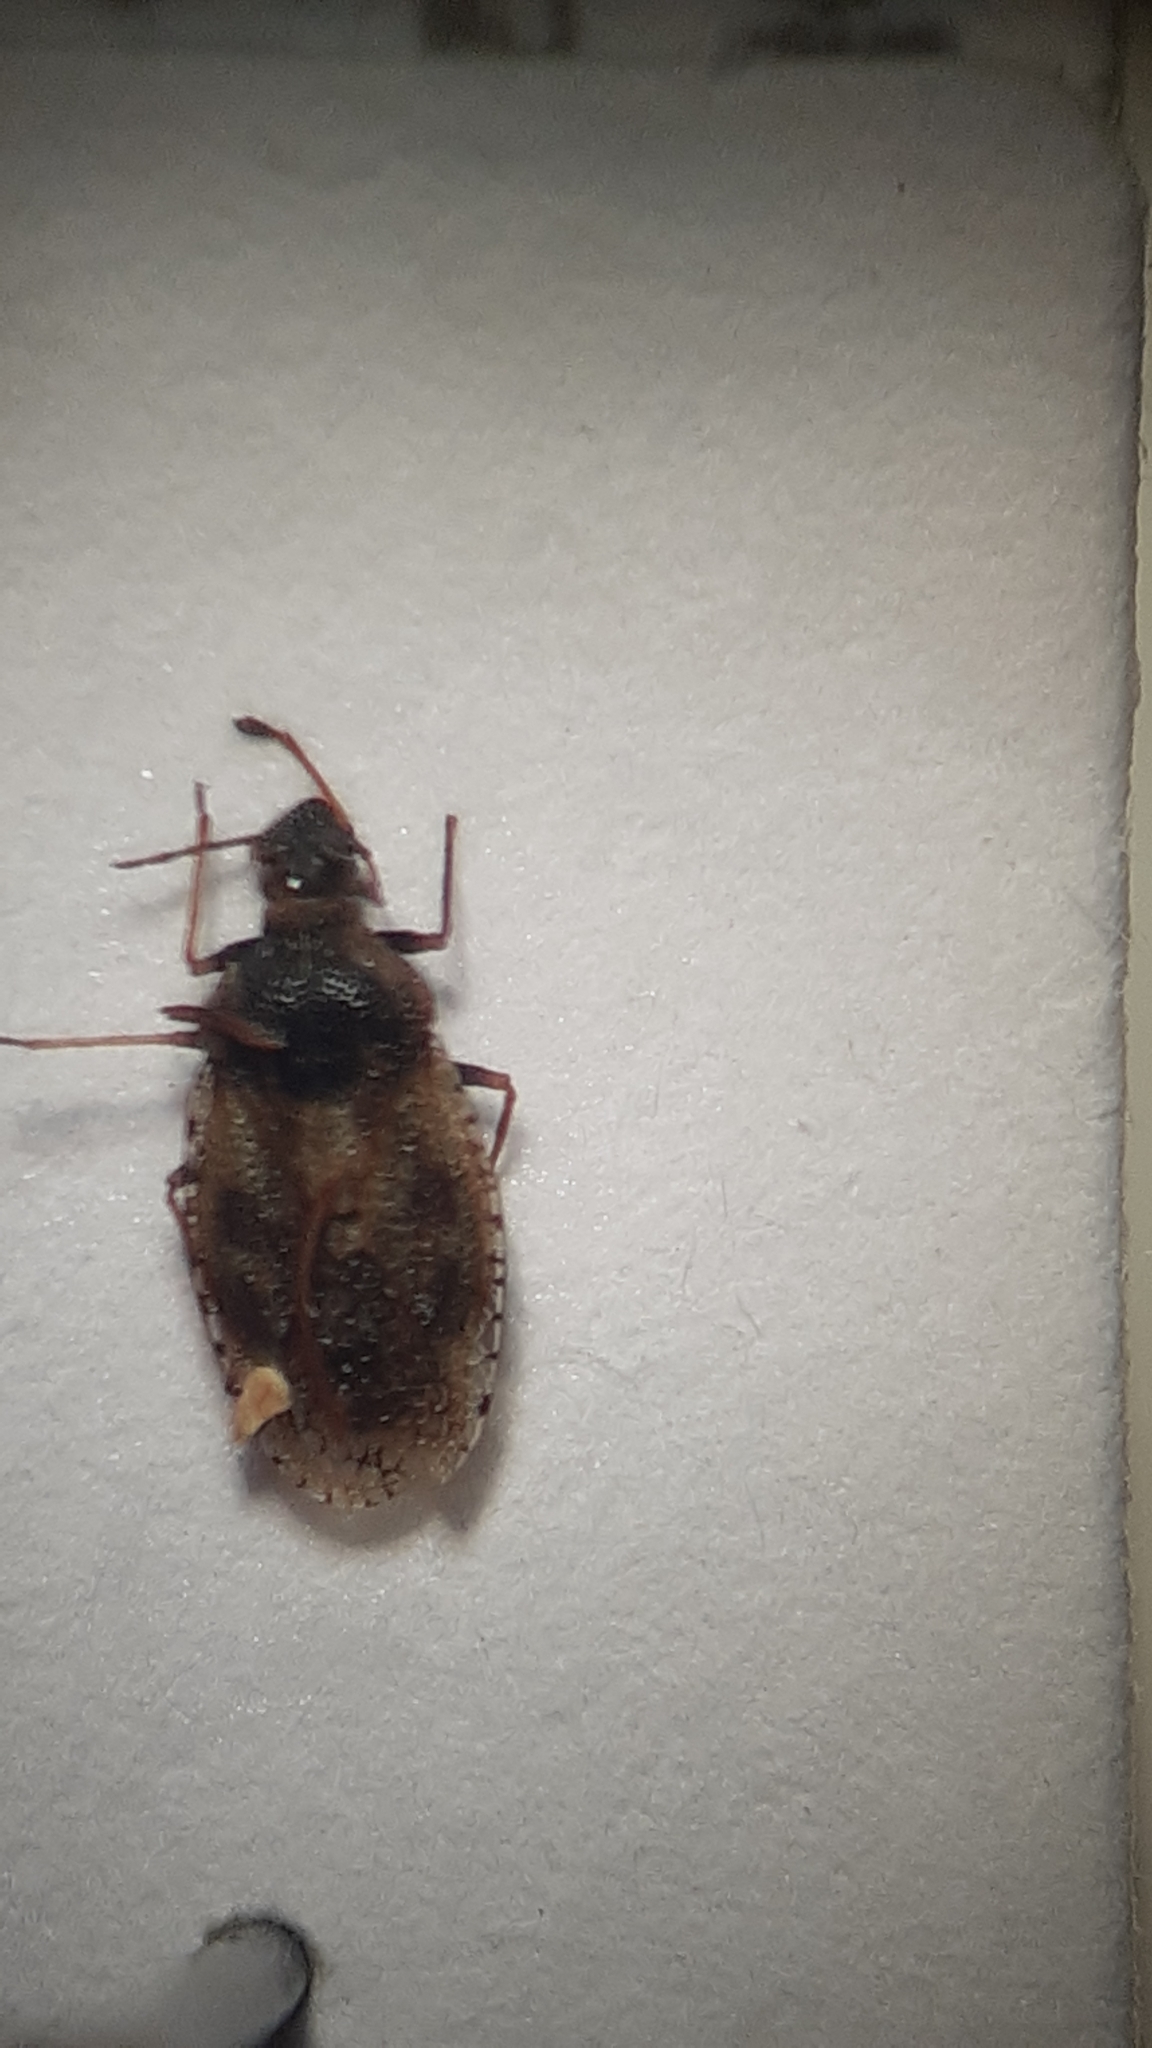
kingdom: Animalia
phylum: Arthropoda
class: Insecta
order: Hemiptera
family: Tingidae
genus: Dictyla
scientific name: Dictyla echii
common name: Lace bug
